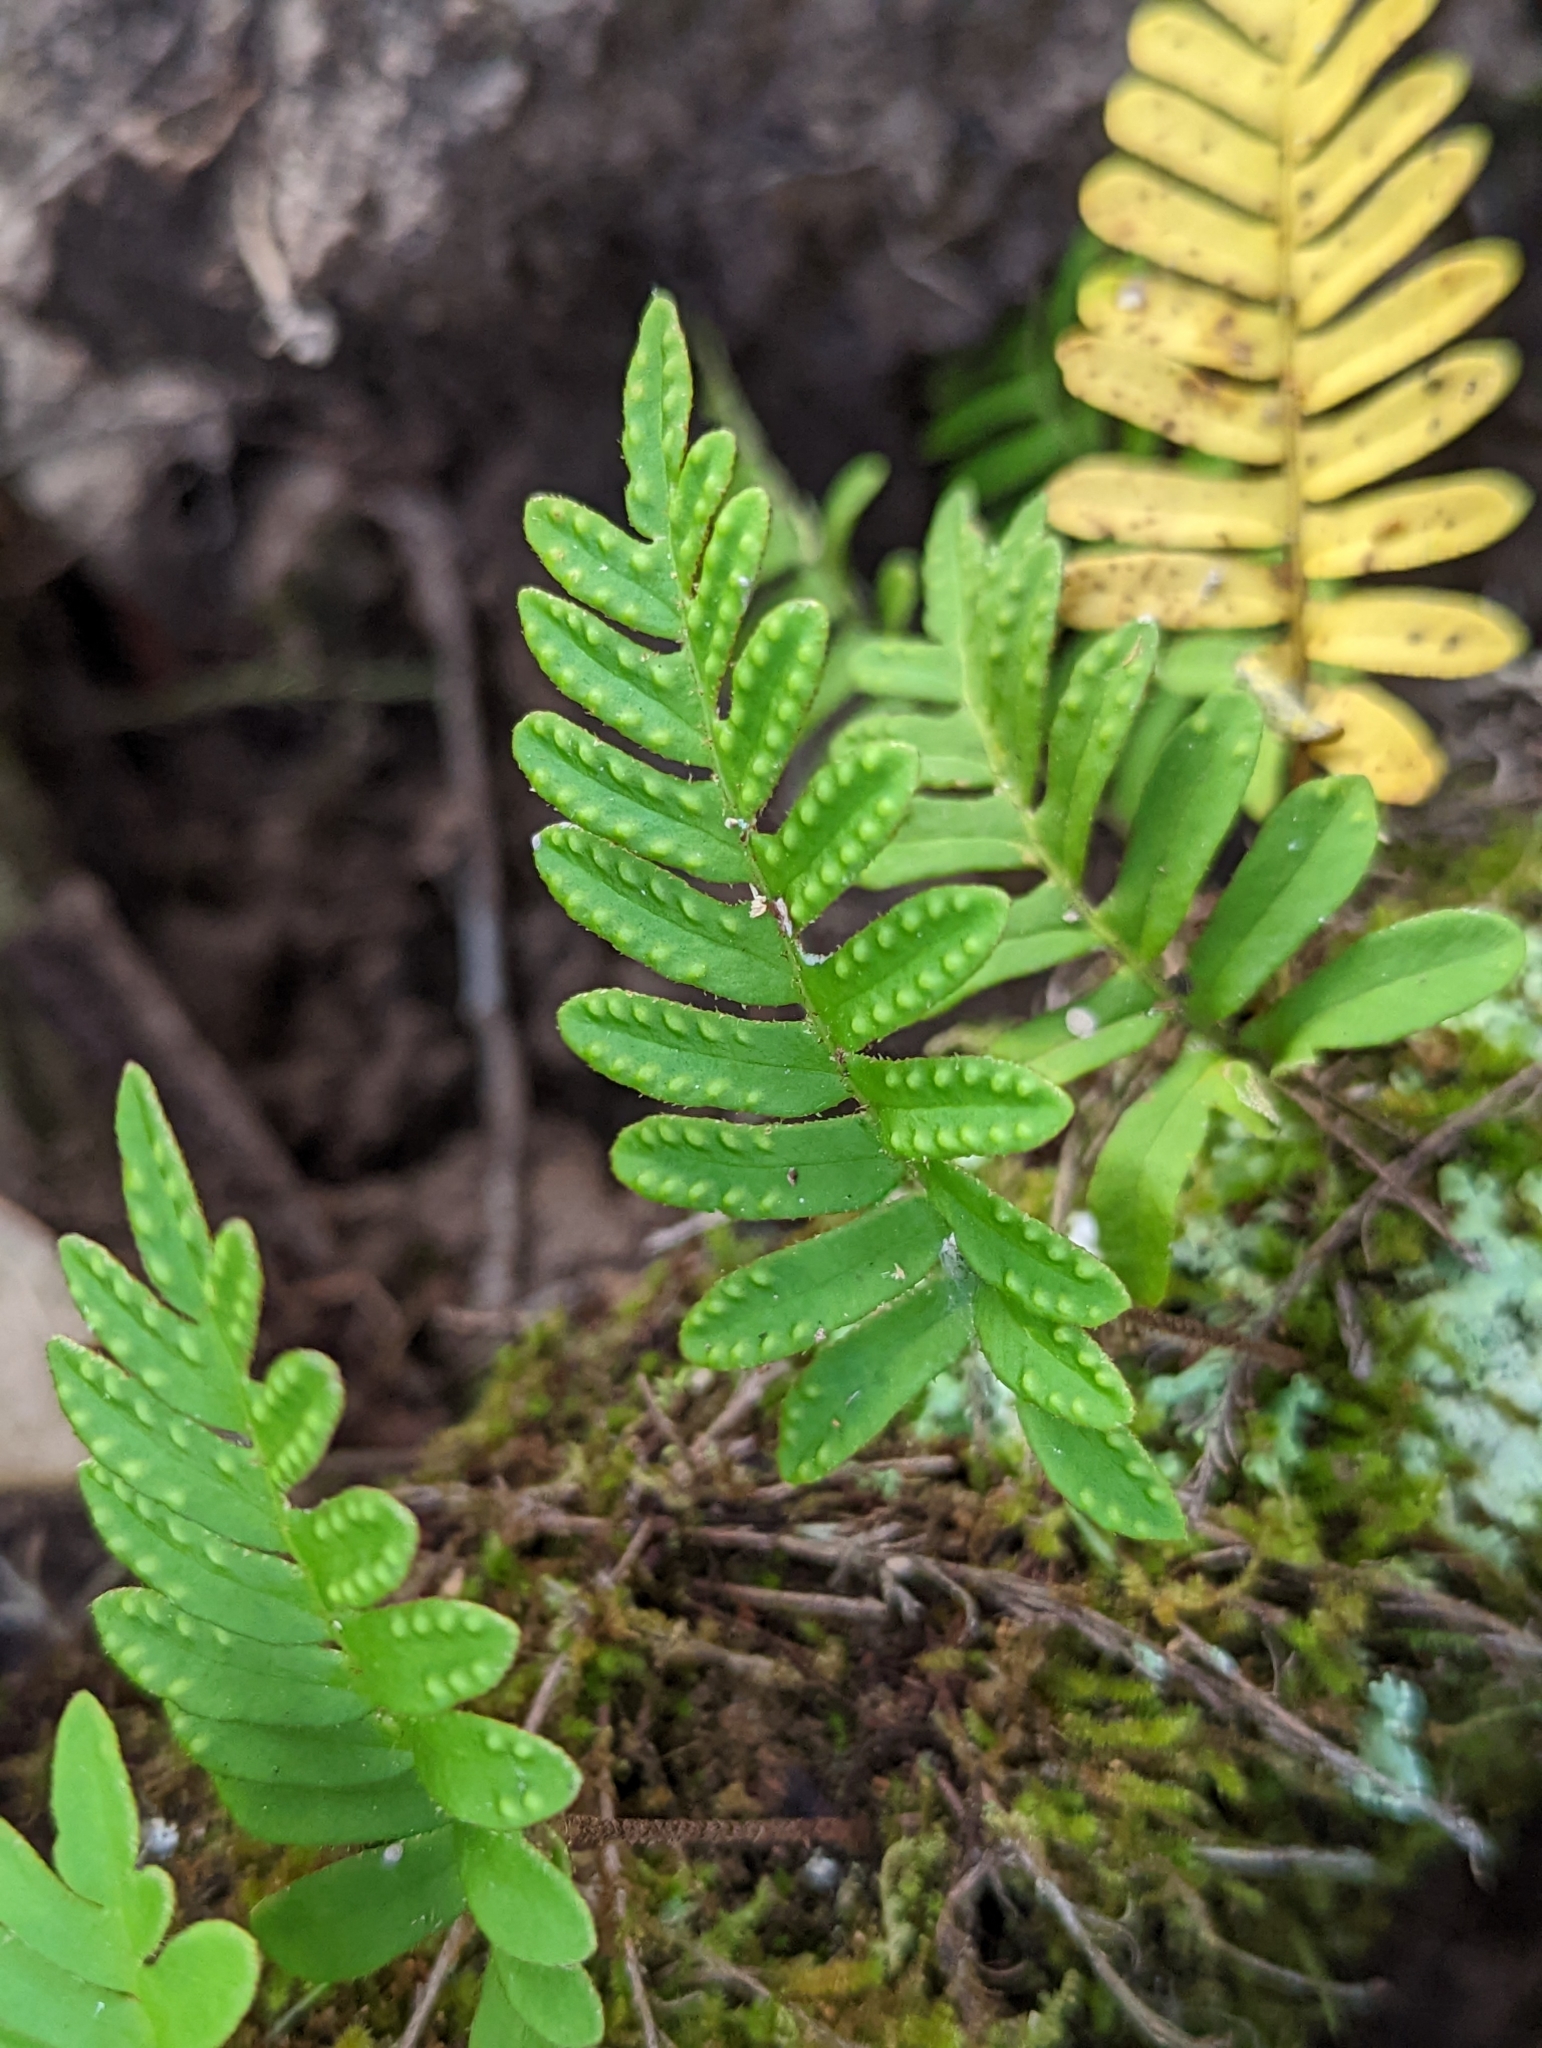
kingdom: Plantae
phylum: Tracheophyta
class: Polypodiopsida
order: Polypodiales
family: Polypodiaceae
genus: Pleopeltis
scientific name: Pleopeltis michauxiana
